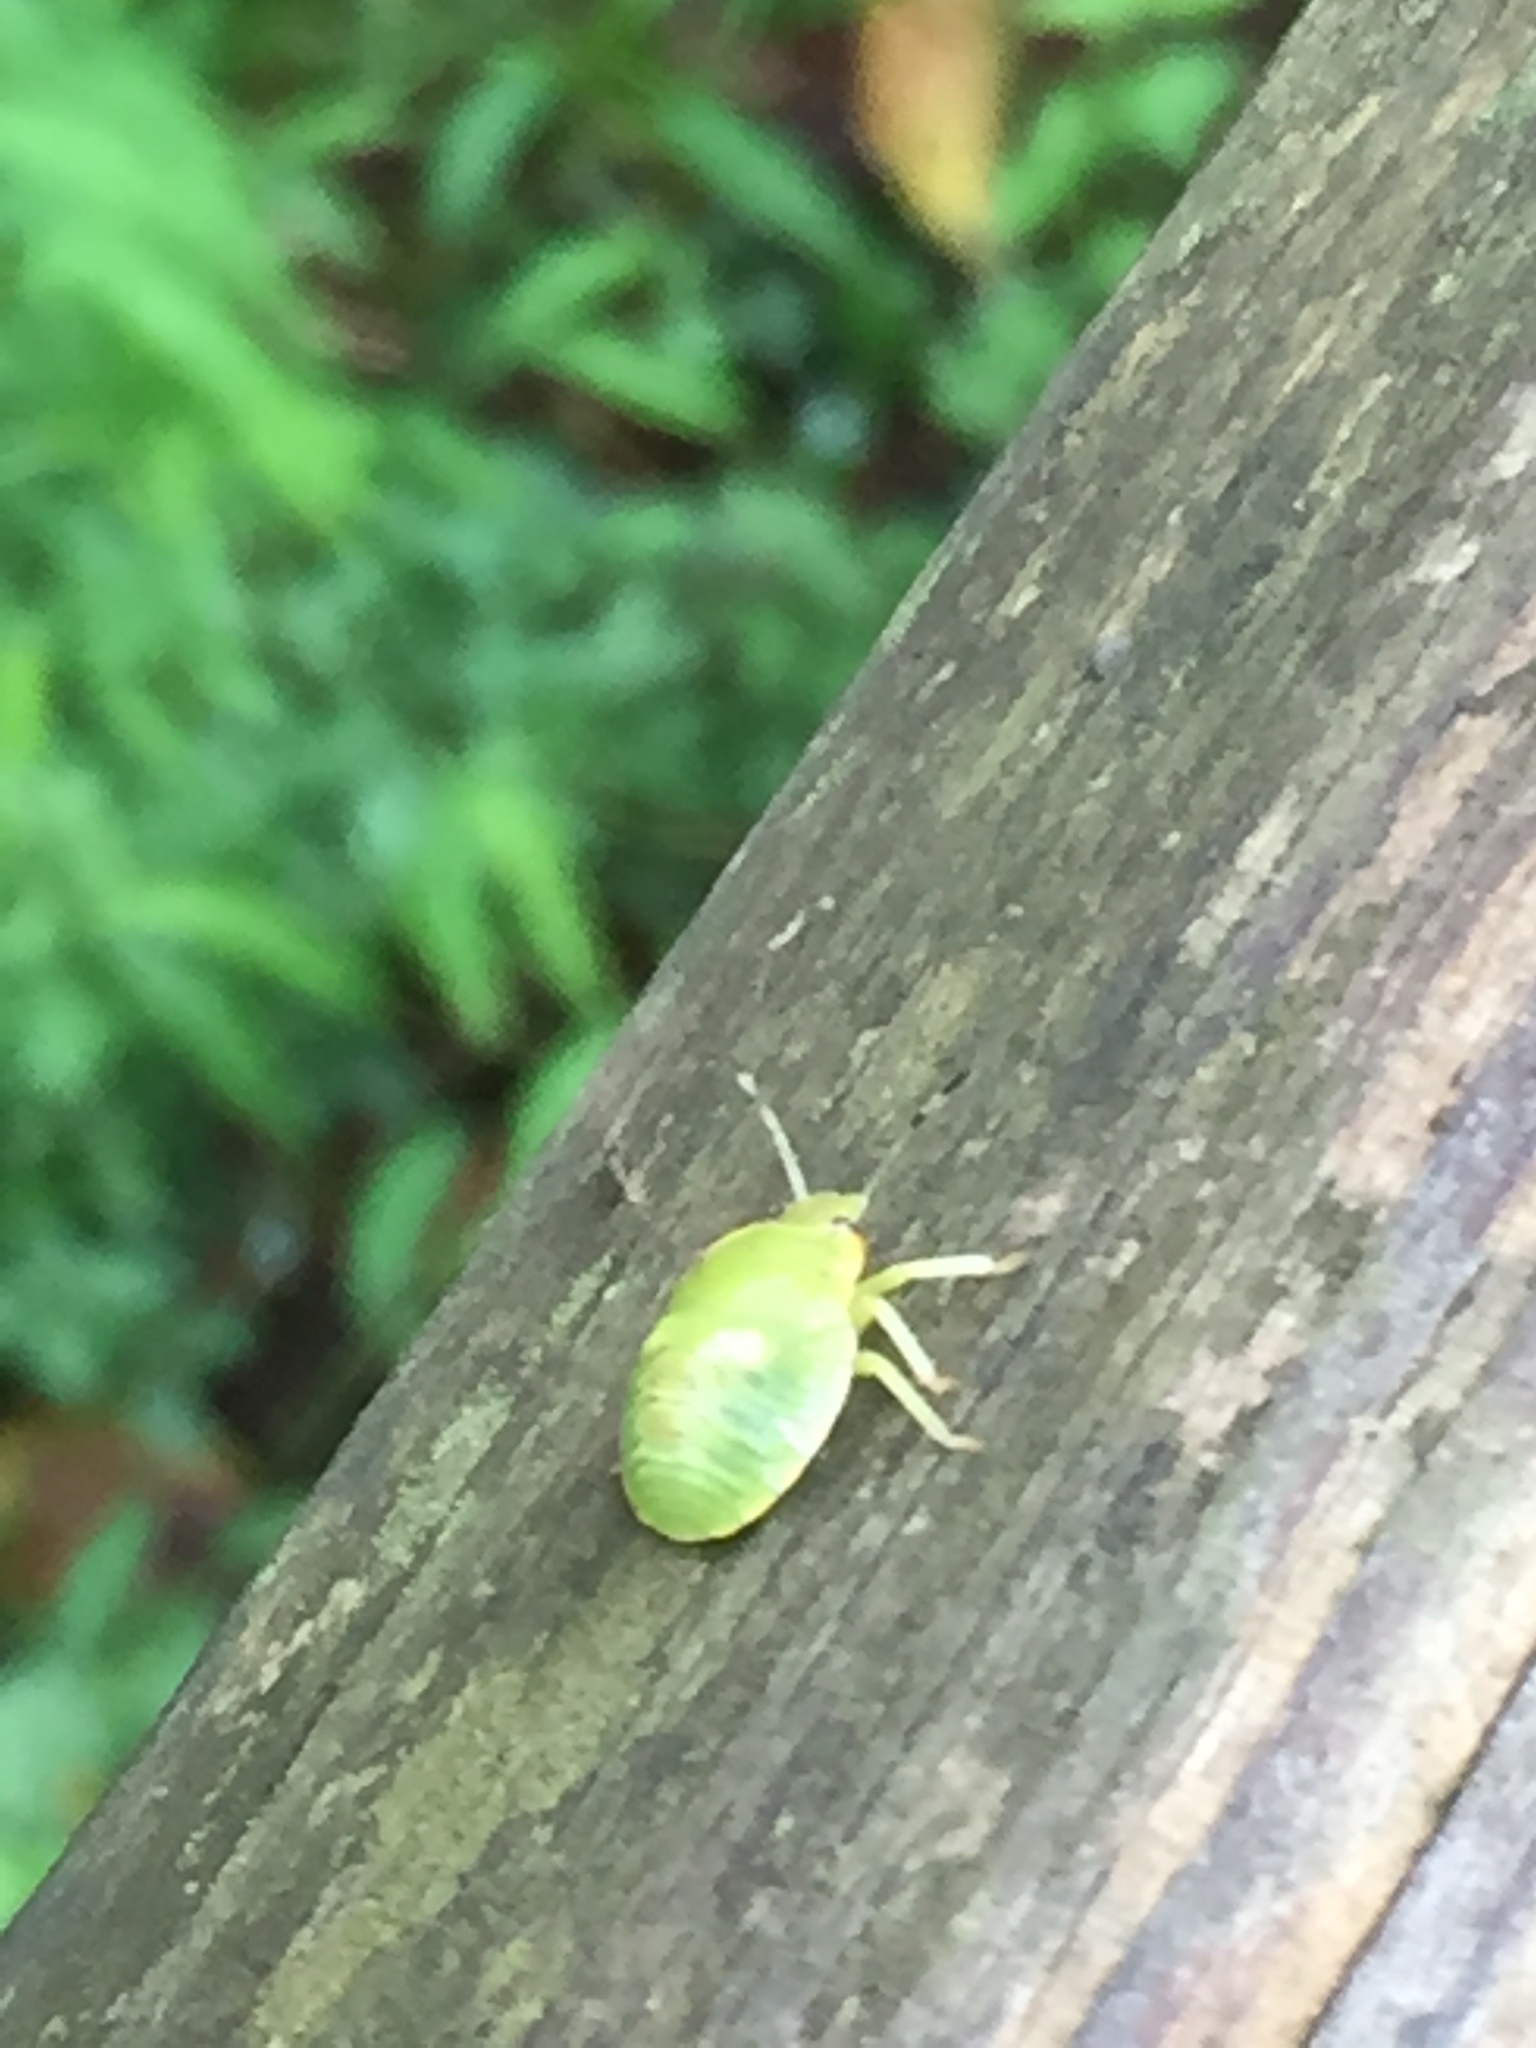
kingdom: Animalia
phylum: Arthropoda
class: Insecta
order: Hemiptera
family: Pentatomidae
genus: Chinavia
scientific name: Chinavia hilaris
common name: Green stink bug
